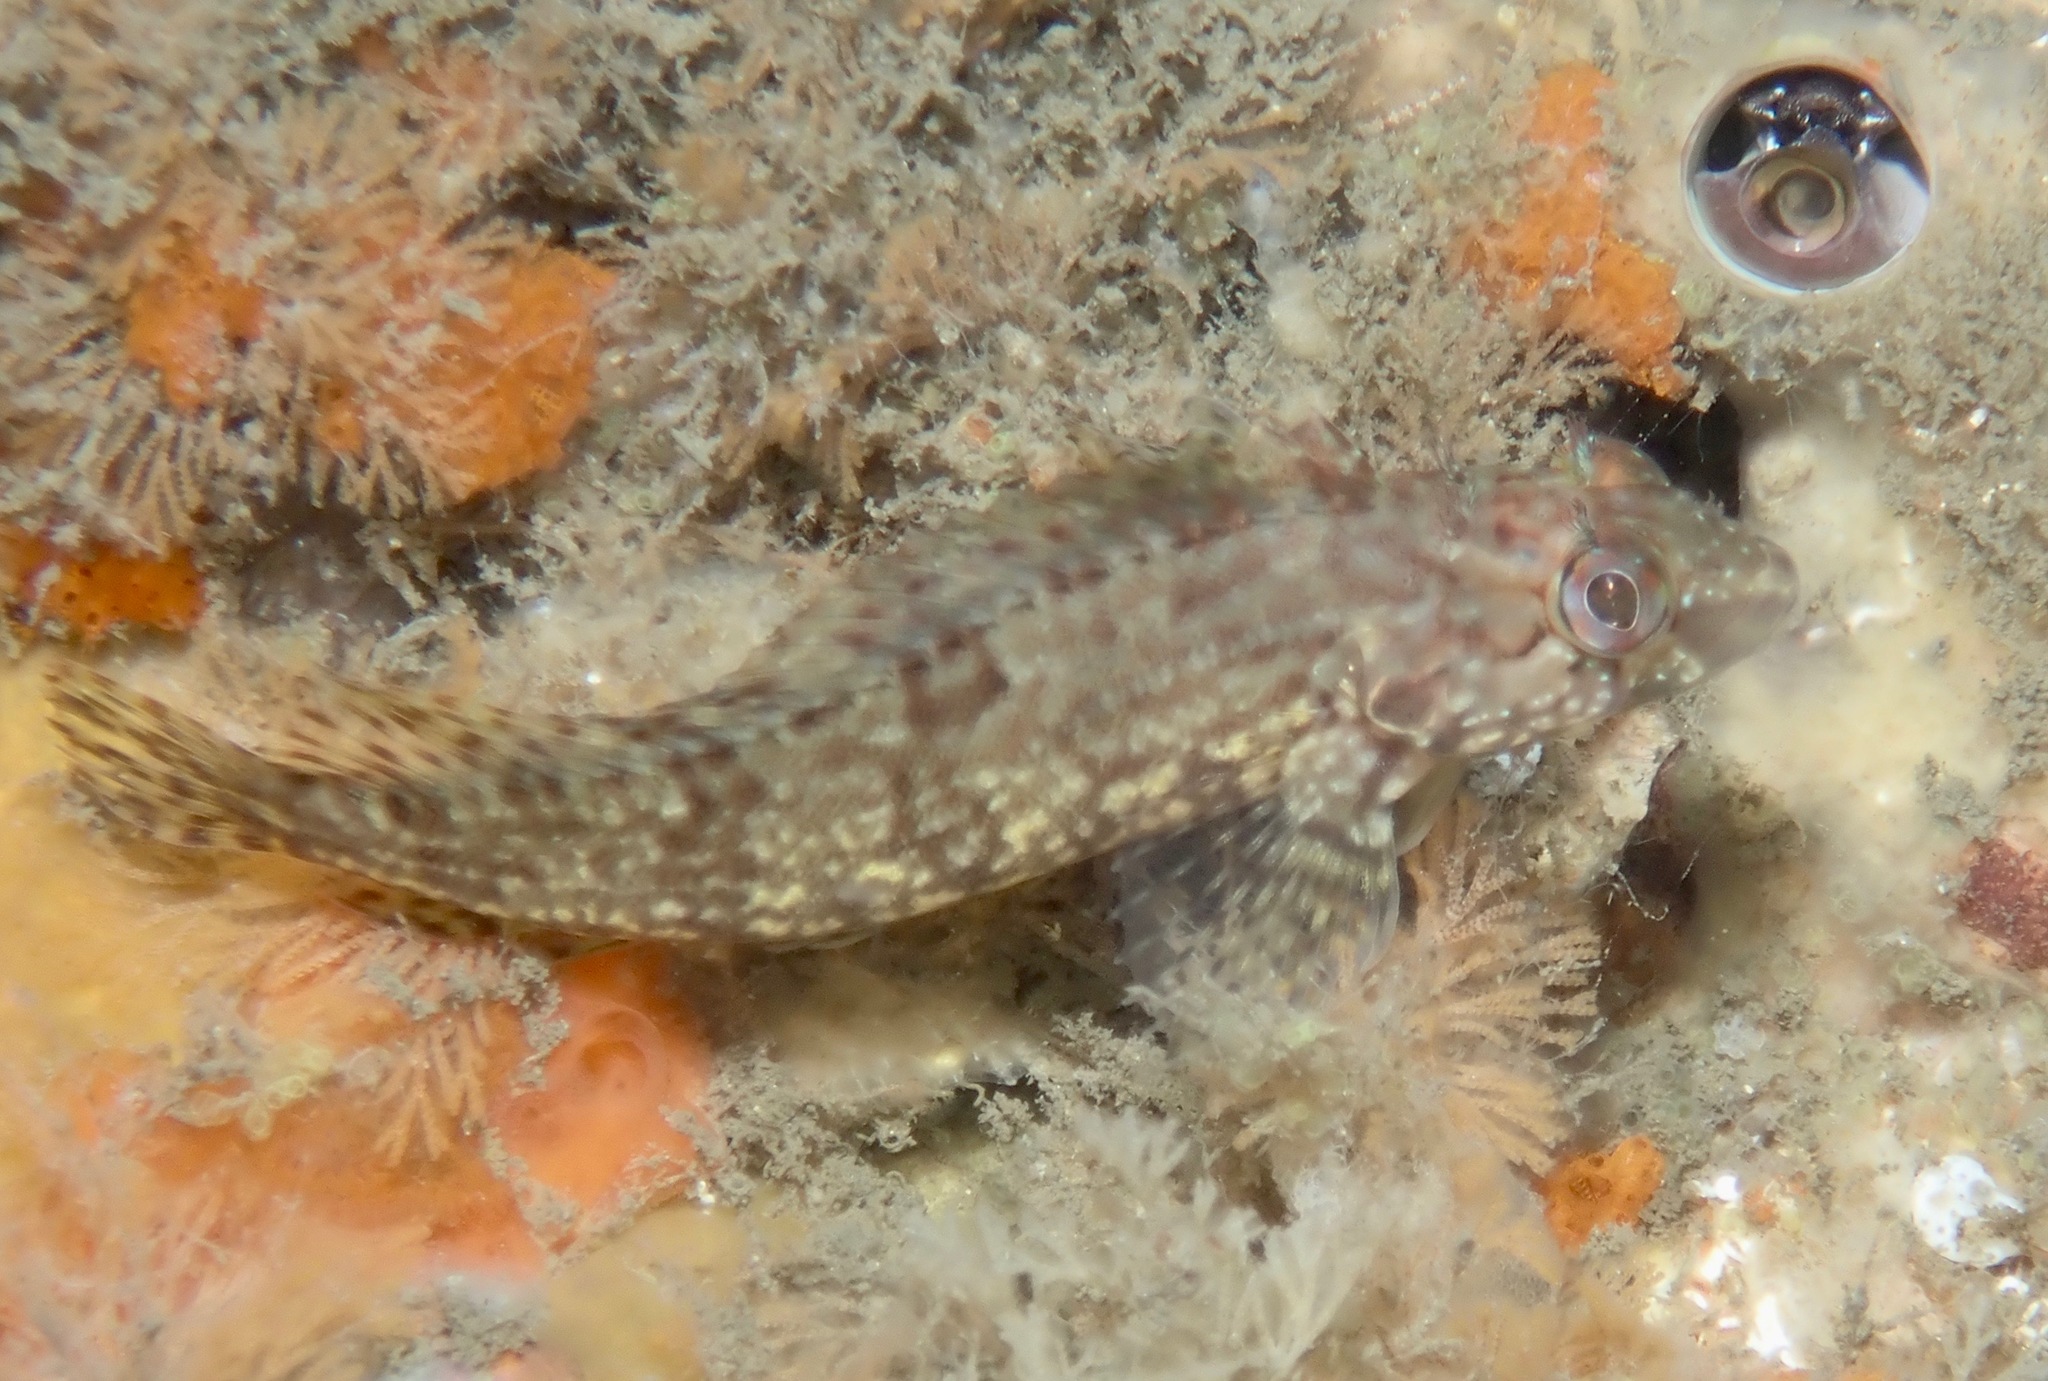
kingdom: Animalia
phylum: Chordata
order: Perciformes
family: Labrisomidae
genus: Labrisomus
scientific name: Labrisomus conditus
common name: Masquerader hairy blenny
